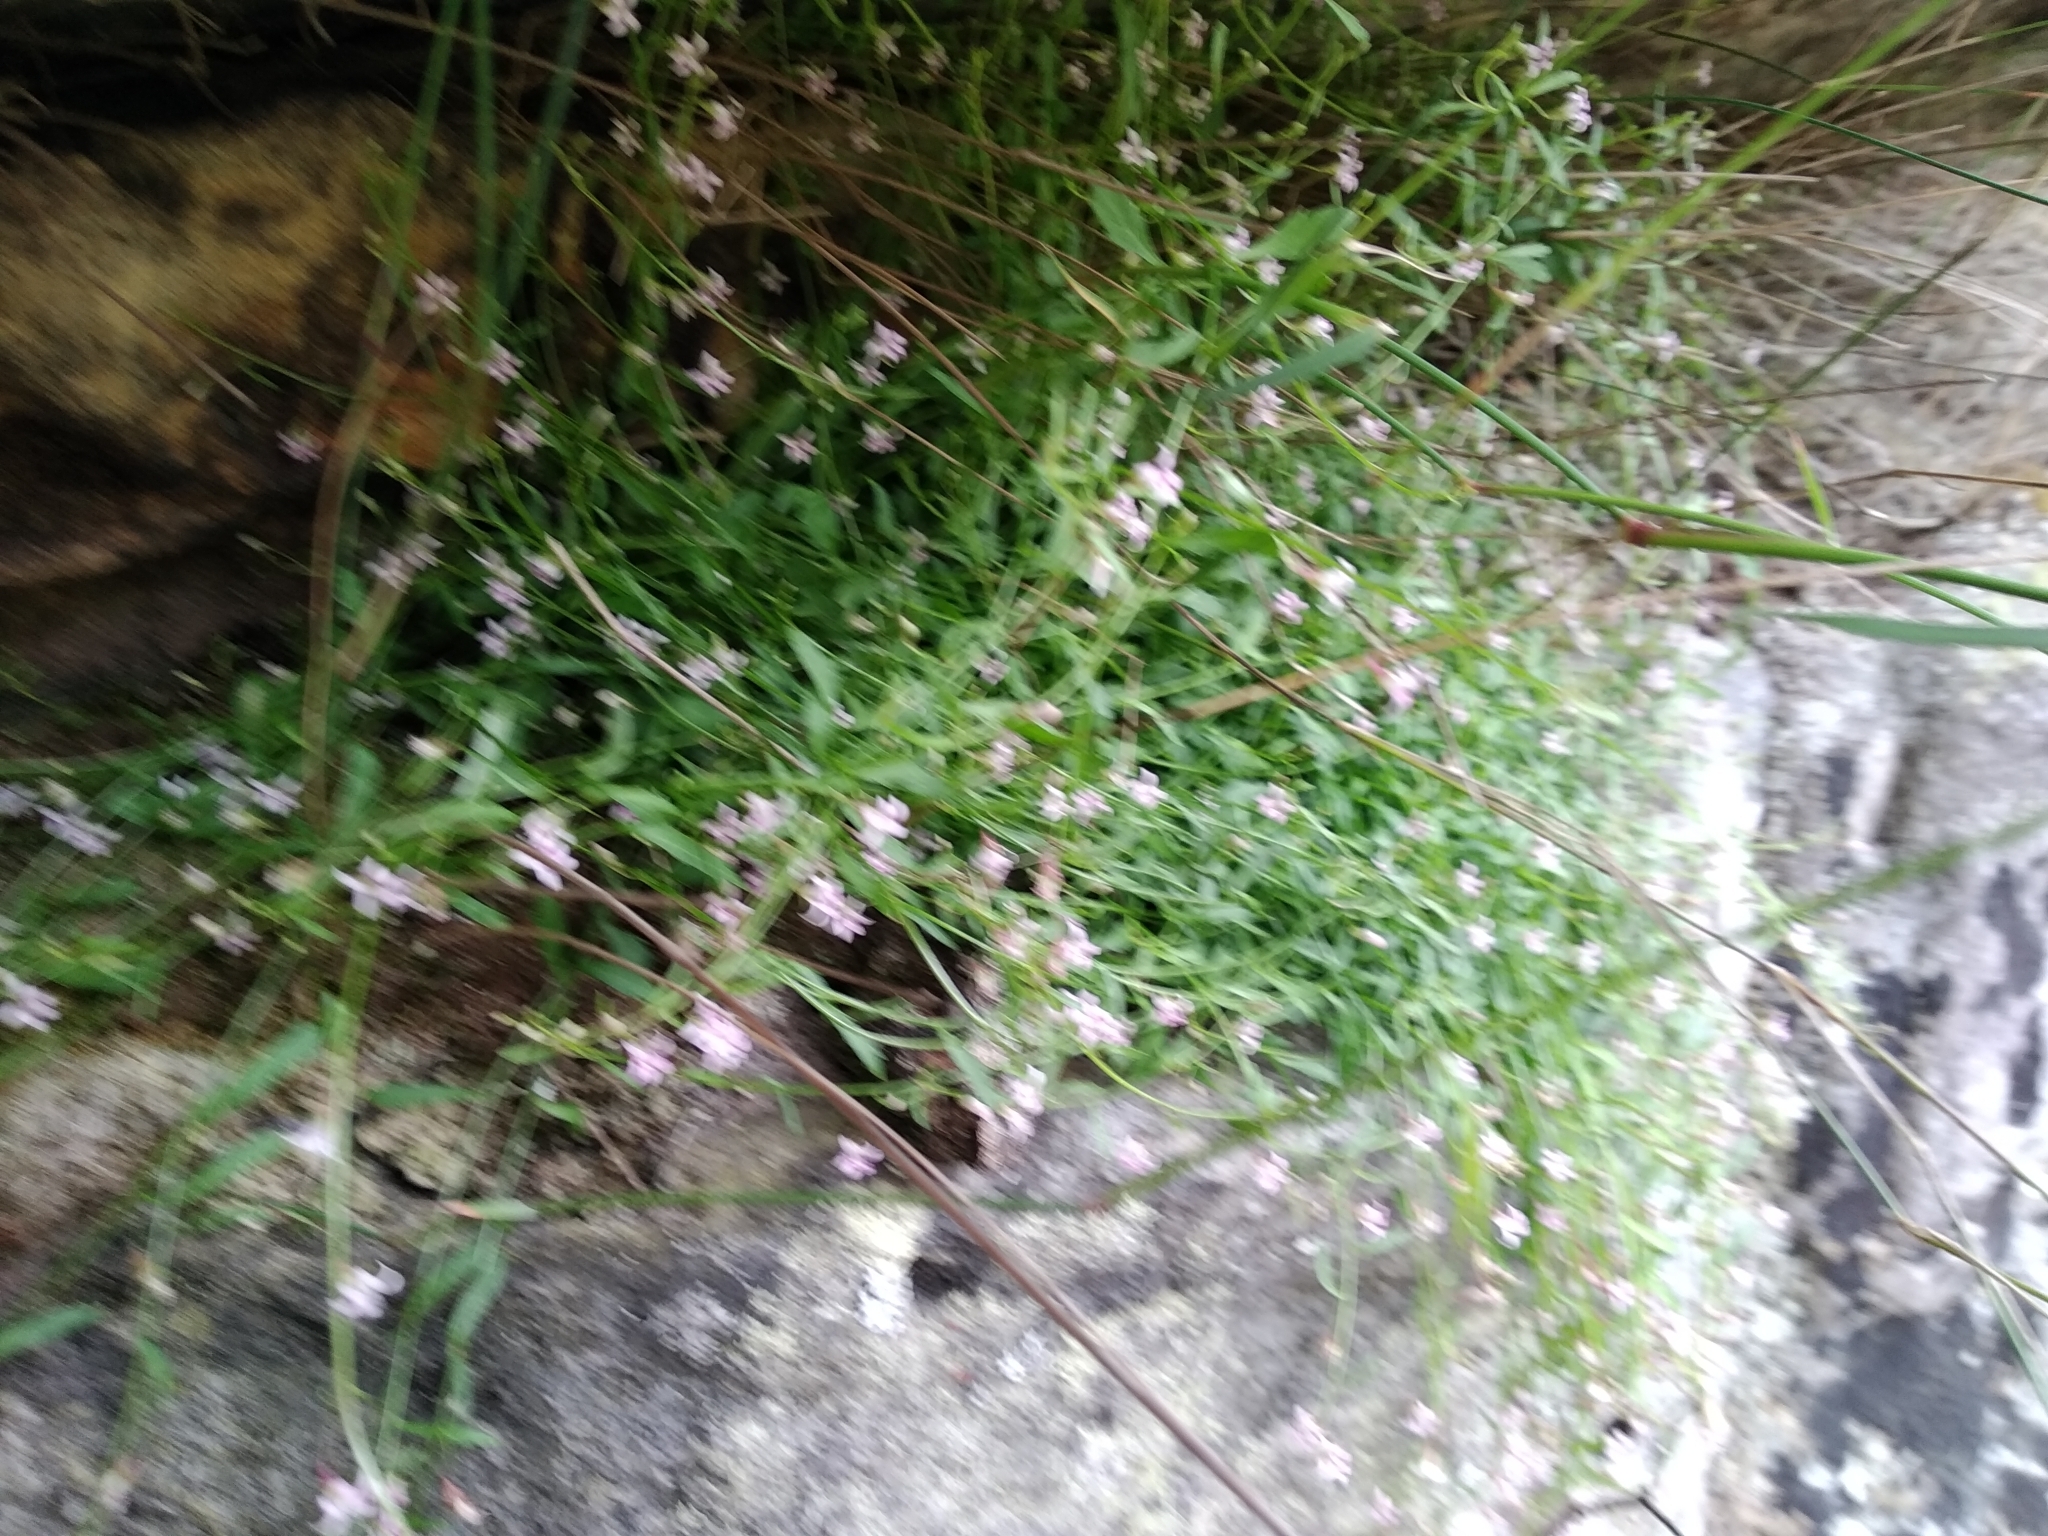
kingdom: Plantae
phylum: Tracheophyta
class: Magnoliopsida
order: Asterales
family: Campanulaceae
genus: Lobelia
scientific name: Lobelia eckloniana
